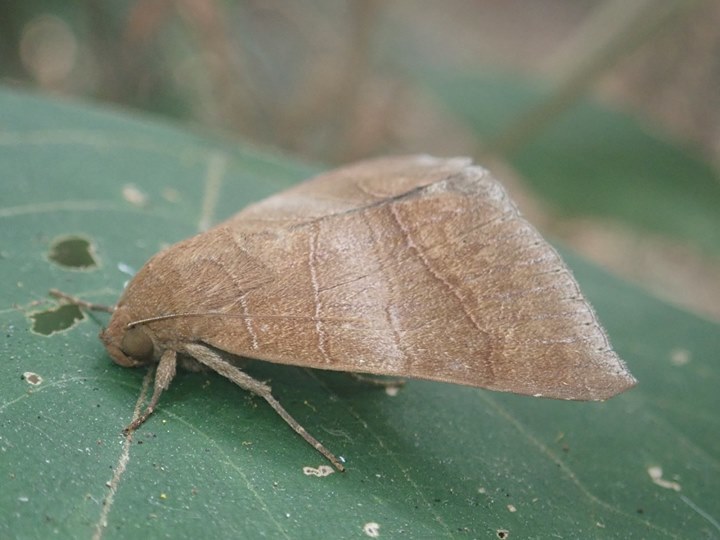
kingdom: Animalia
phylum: Arthropoda
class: Insecta
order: Lepidoptera
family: Erebidae
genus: Bastilla
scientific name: Bastilla absentimacula
